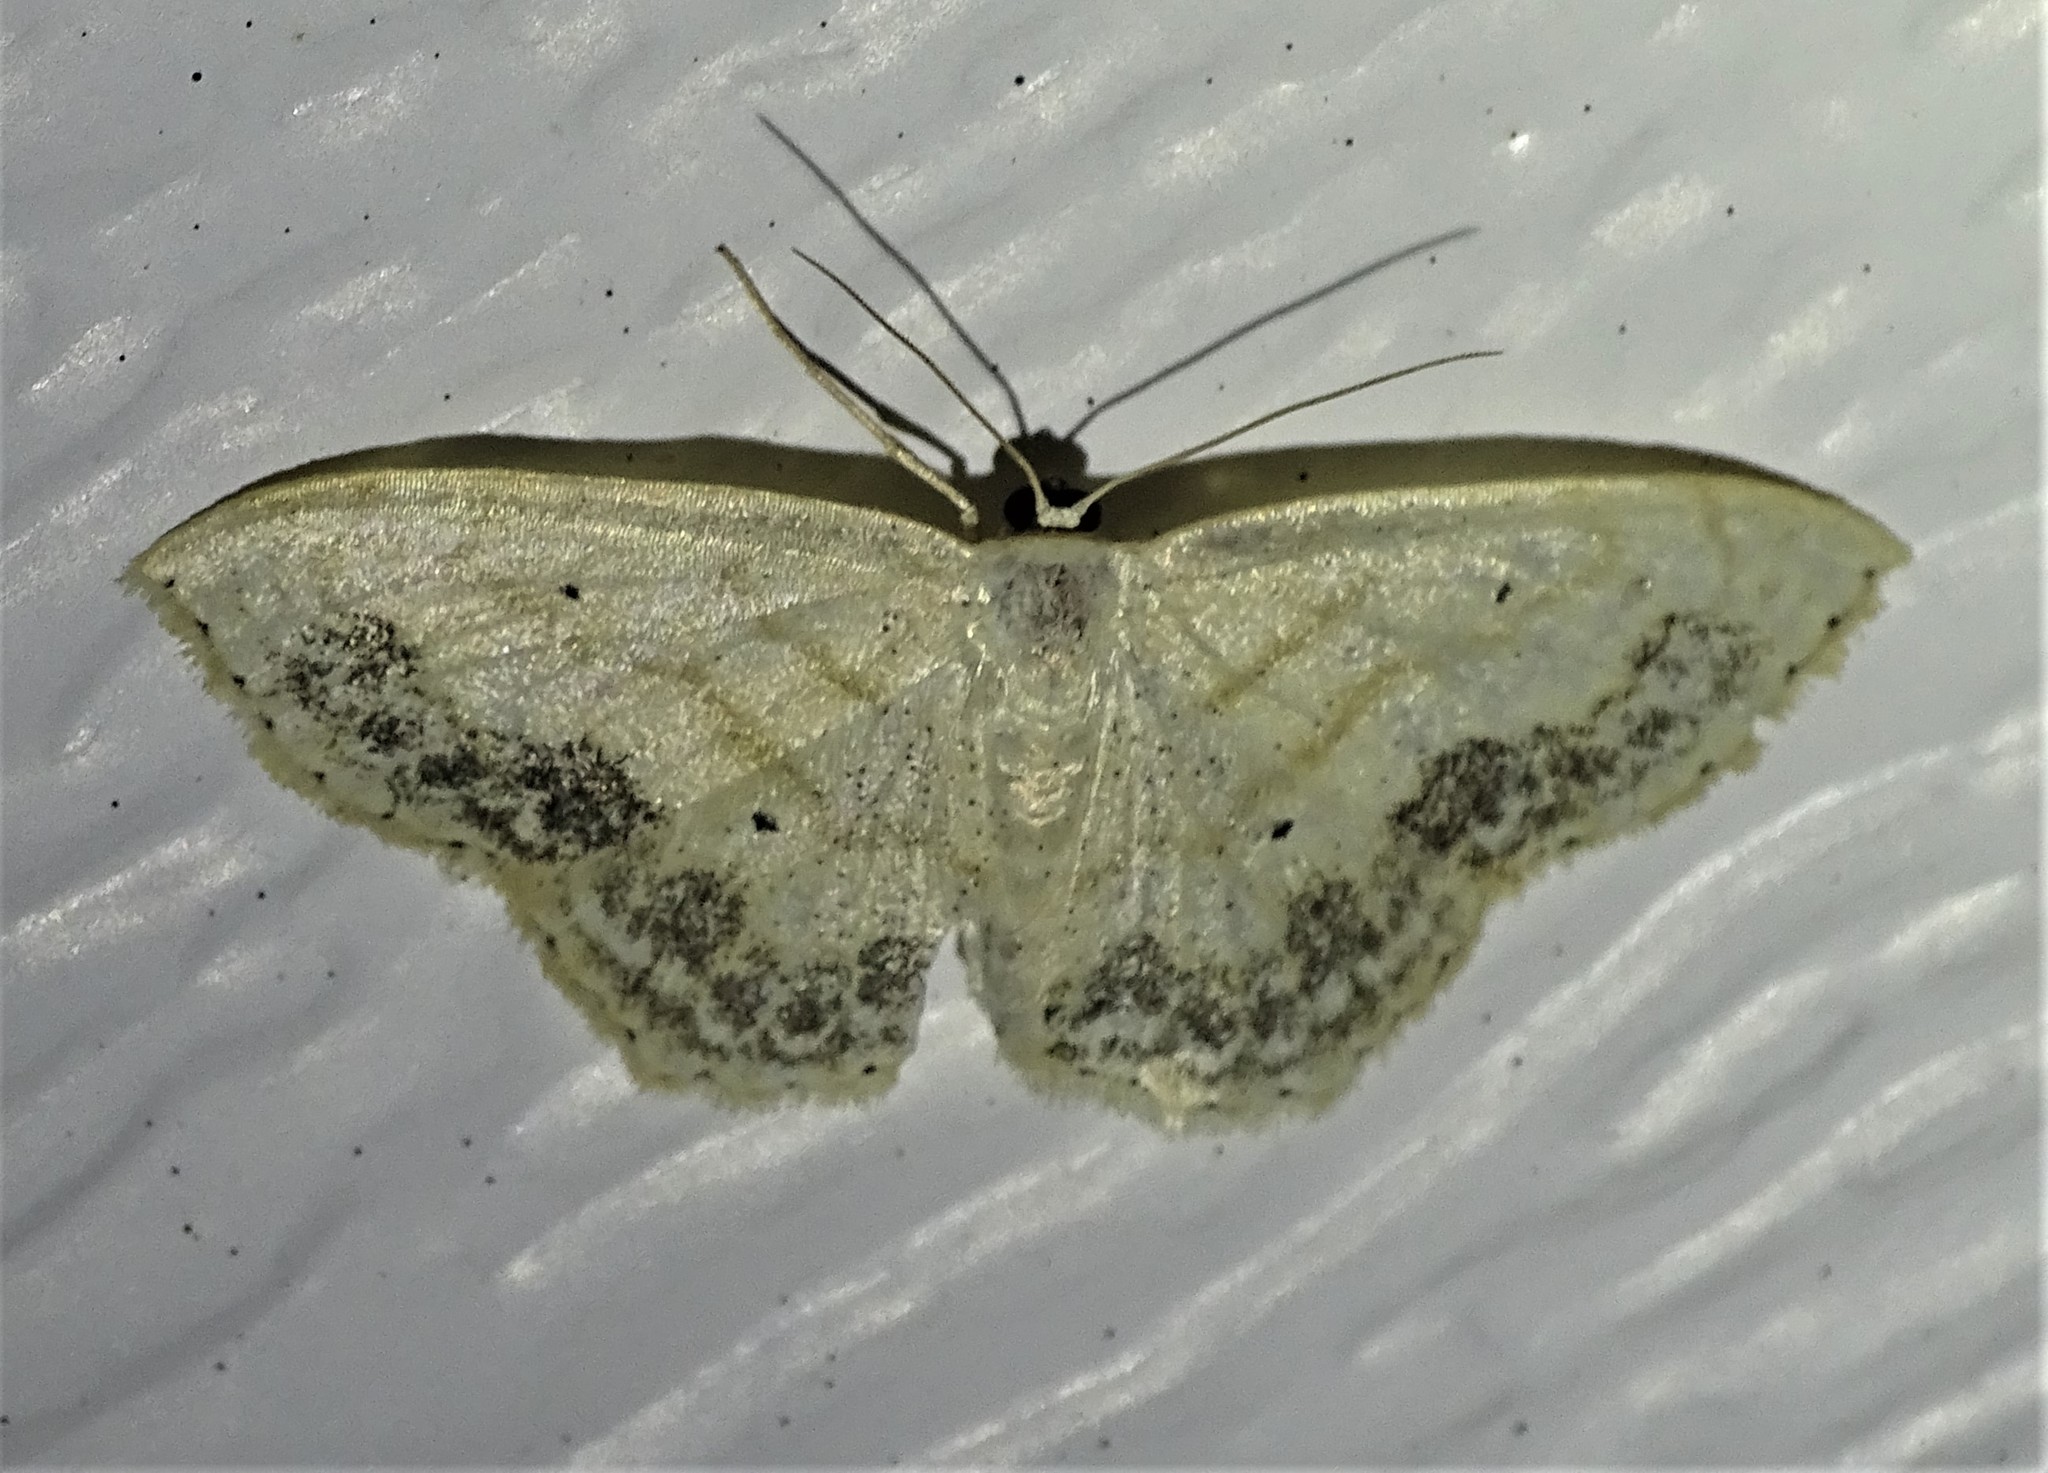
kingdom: Animalia
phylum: Arthropoda
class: Insecta
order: Lepidoptera
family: Geometridae
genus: Scopula
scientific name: Scopula limboundata
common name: Large lace border
